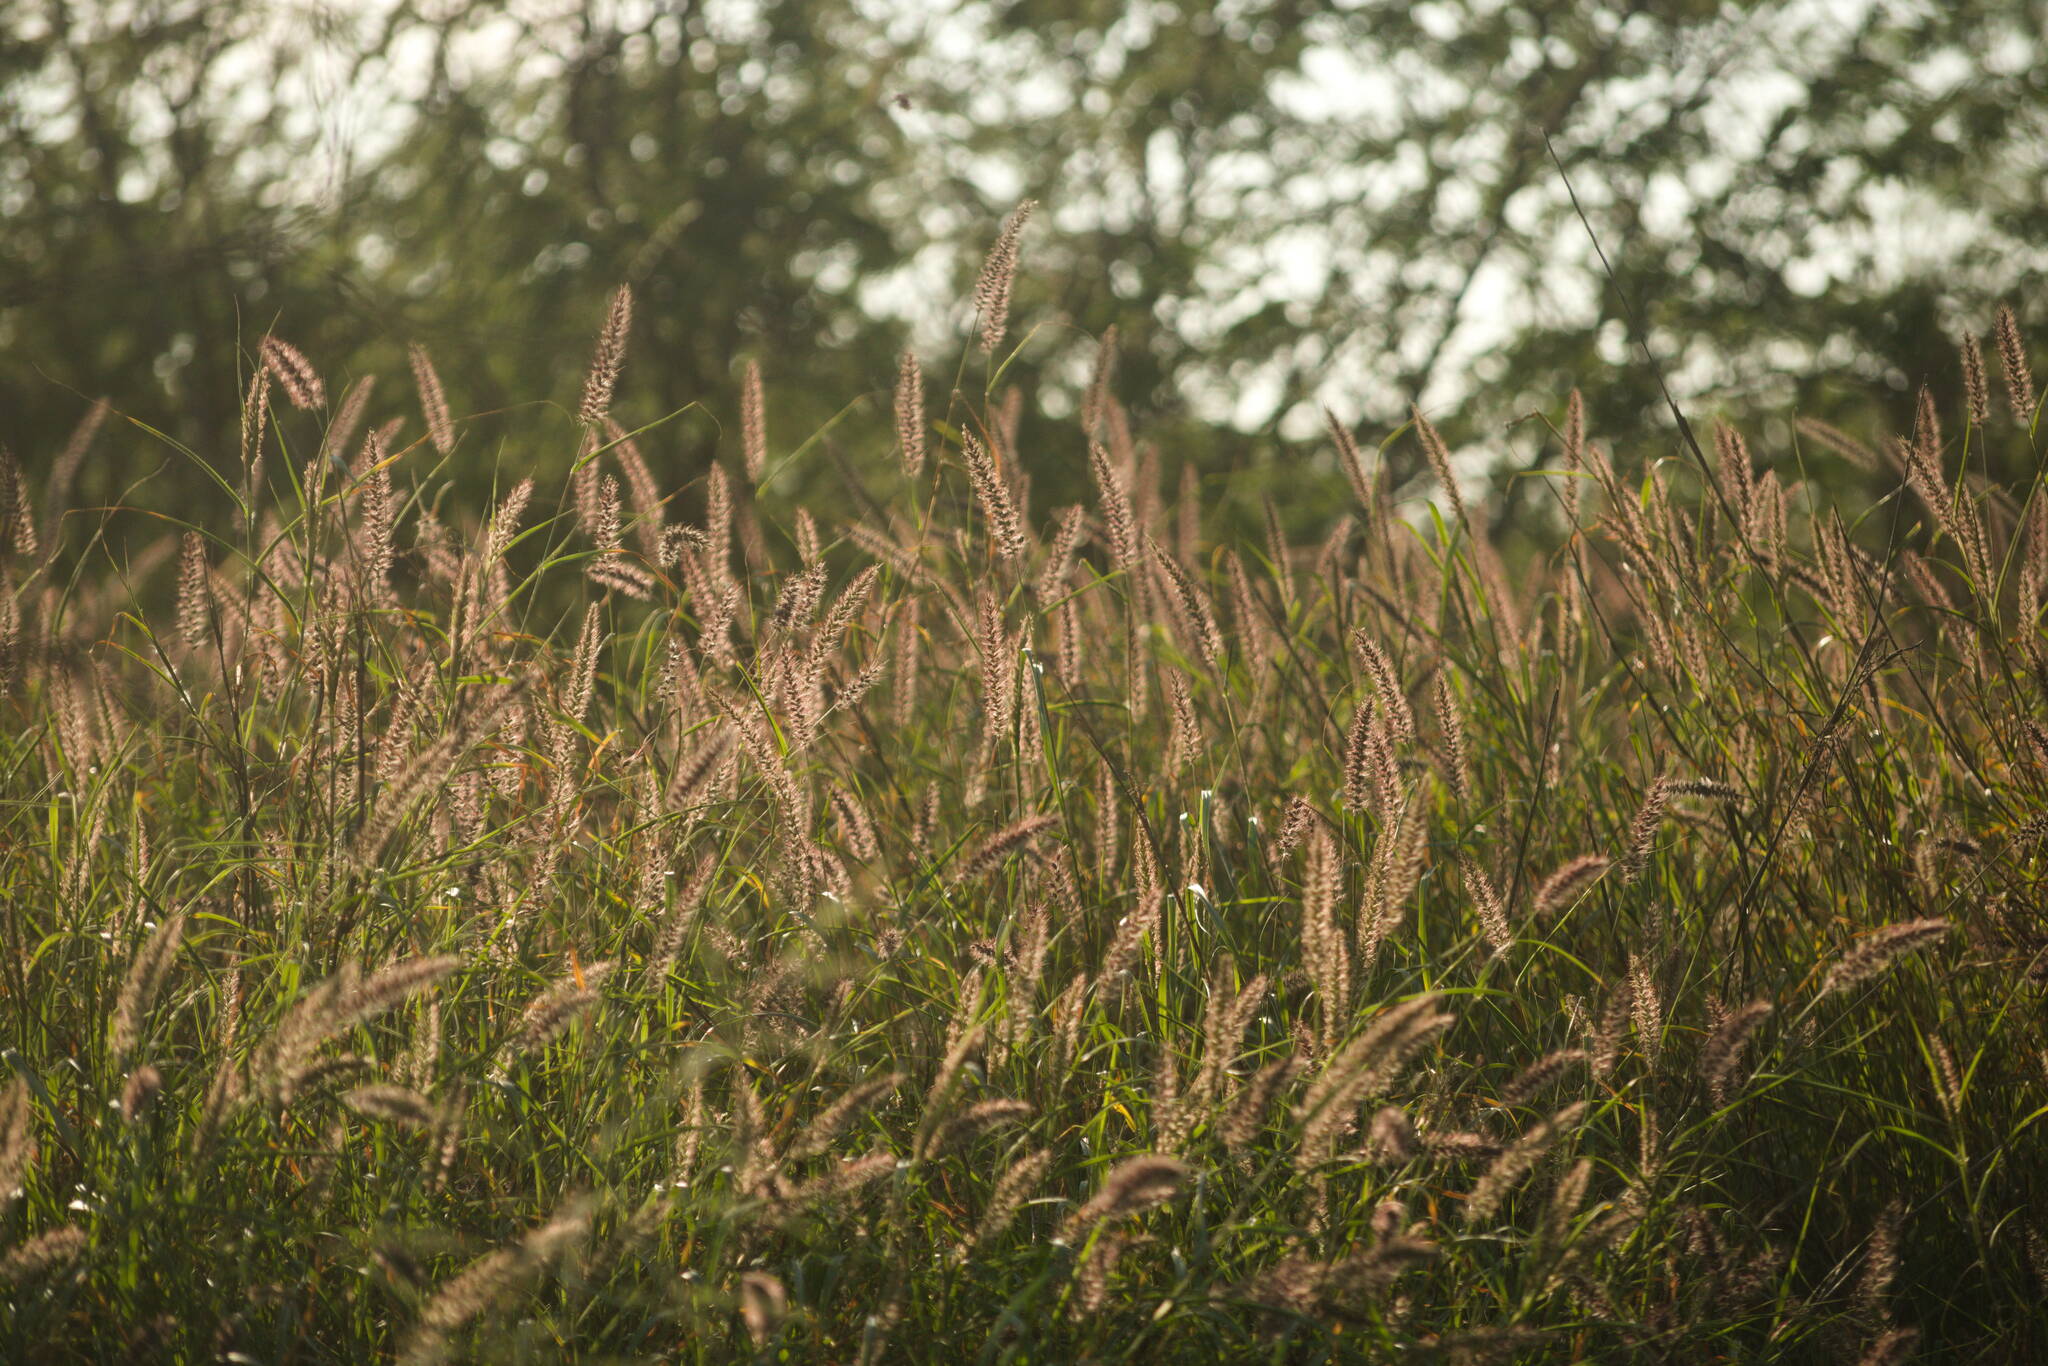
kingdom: Plantae
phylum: Tracheophyta
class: Liliopsida
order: Poales
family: Poaceae
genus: Cenchrus
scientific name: Cenchrus ciliaris
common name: Buffelgrass
